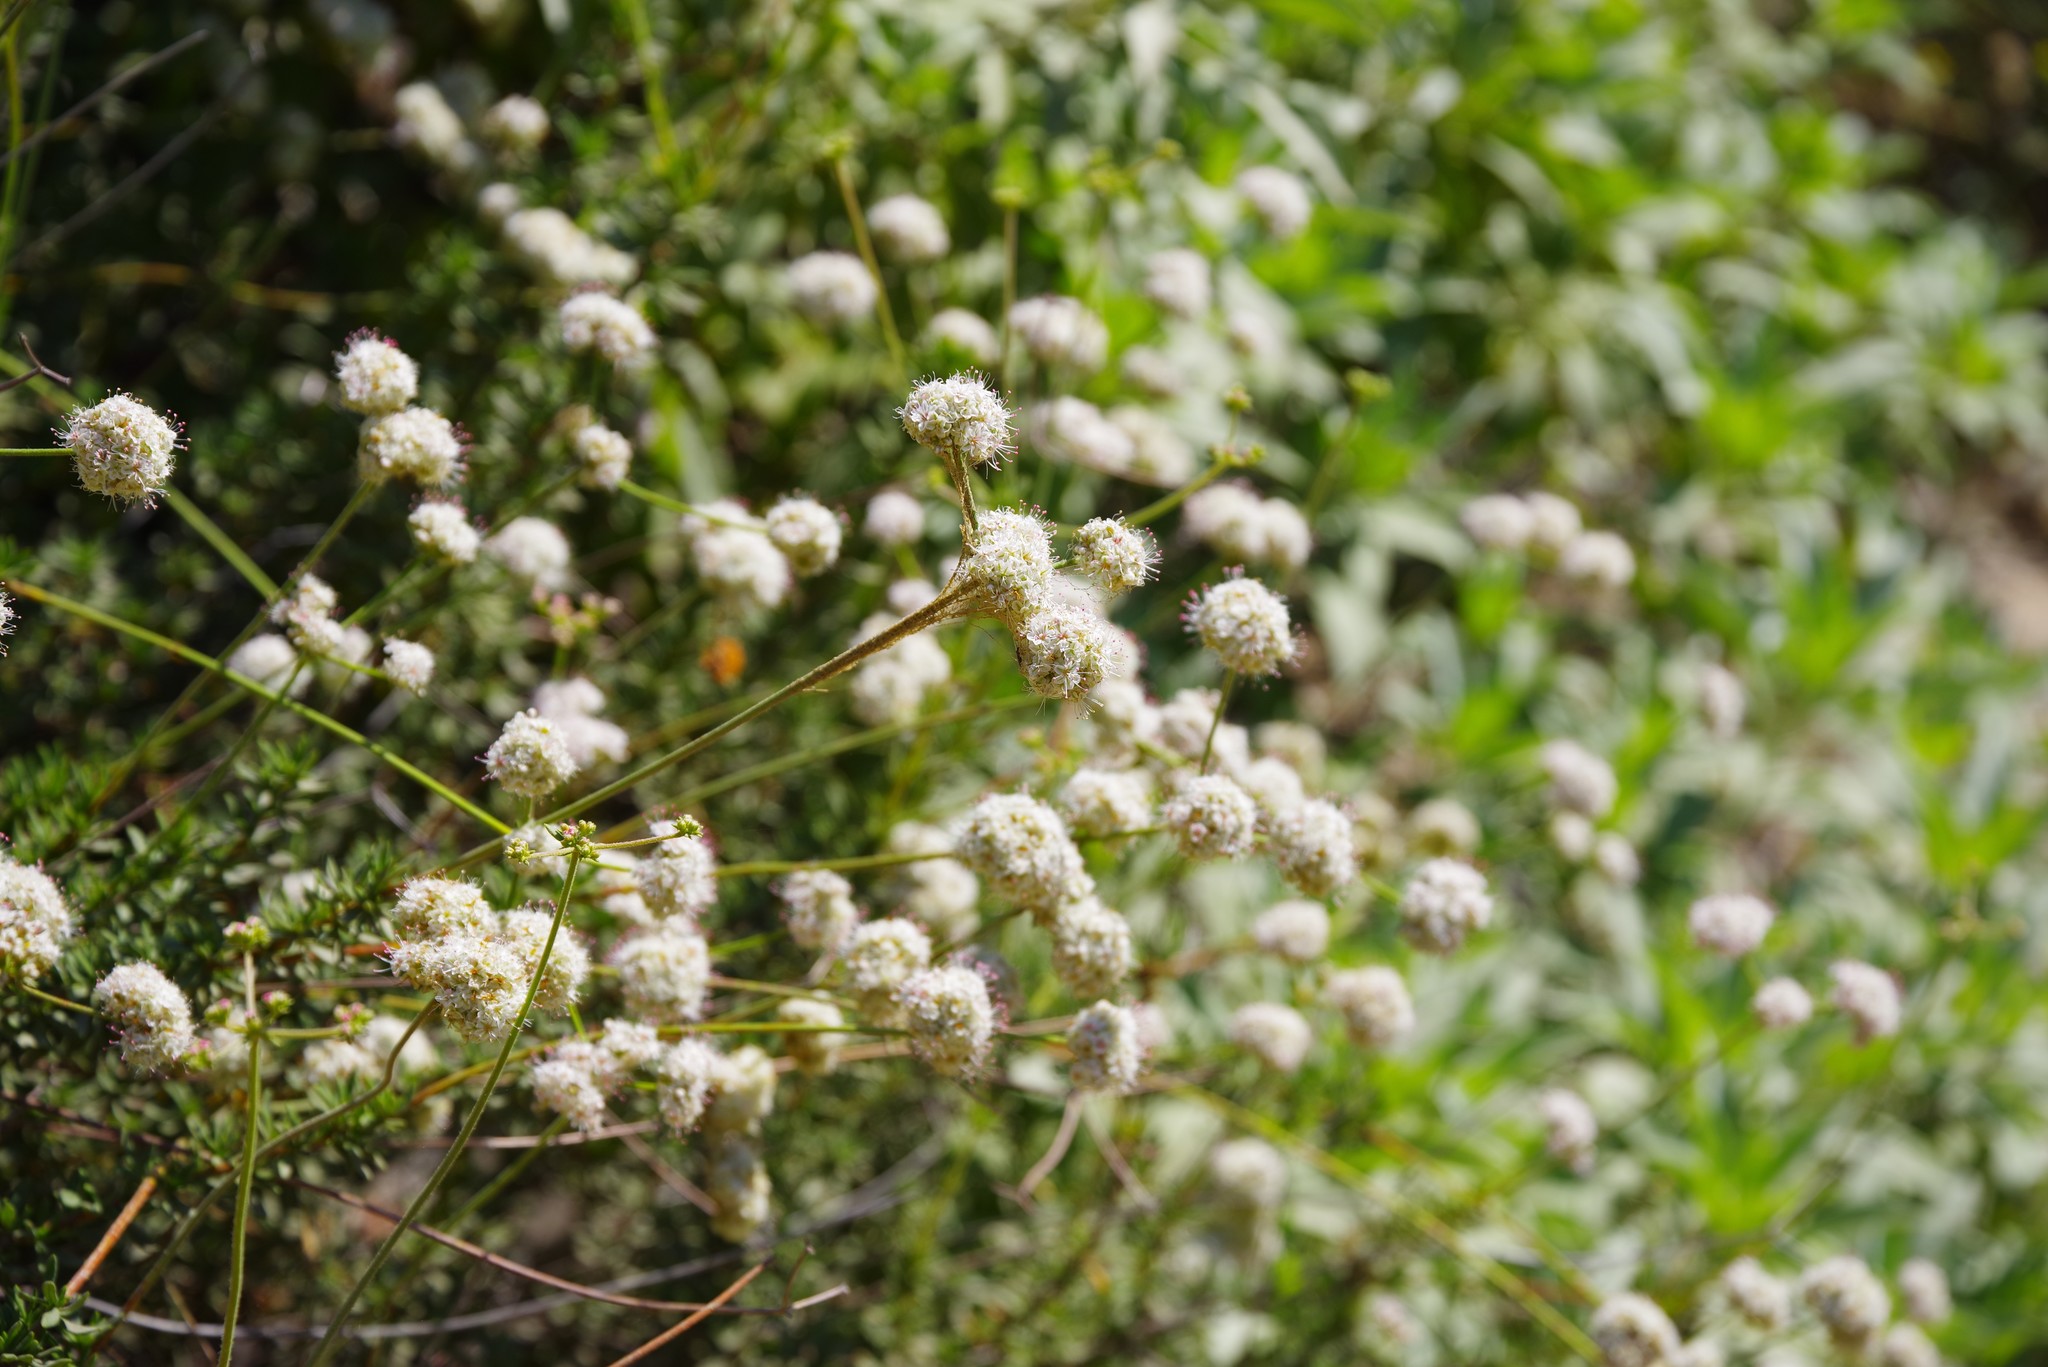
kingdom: Plantae
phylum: Tracheophyta
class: Magnoliopsida
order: Caryophyllales
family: Polygonaceae
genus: Eriogonum
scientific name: Eriogonum fasciculatum
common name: California wild buckwheat
